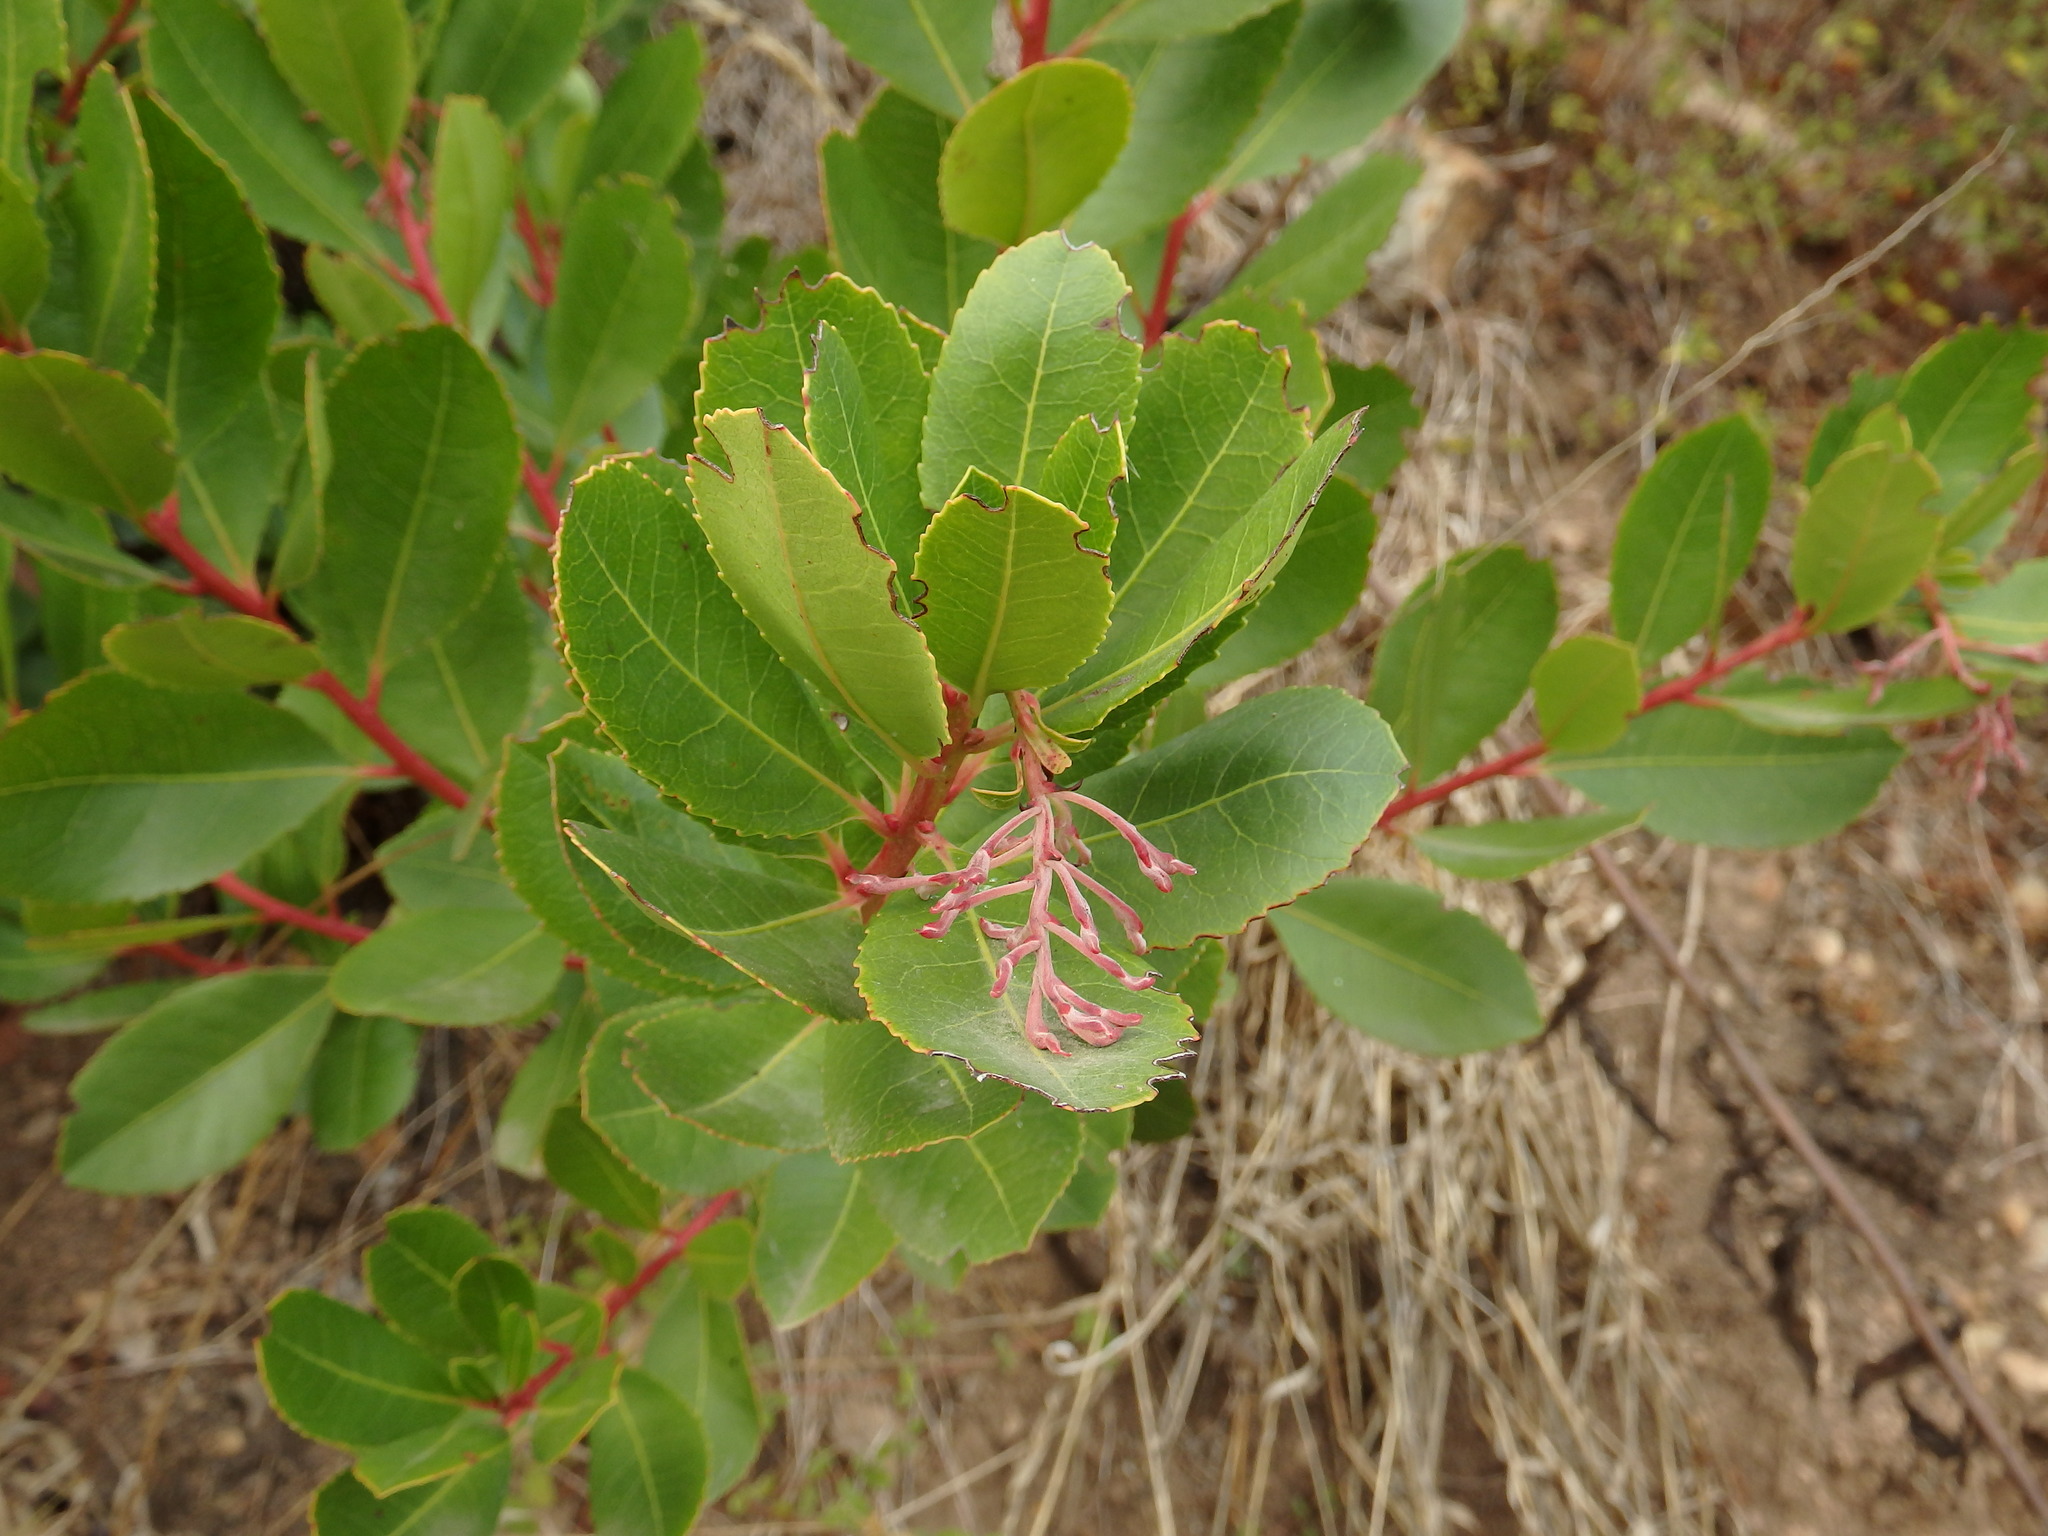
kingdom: Plantae
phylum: Tracheophyta
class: Magnoliopsida
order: Ericales
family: Ericaceae
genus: Arbutus
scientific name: Arbutus unedo
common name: Strawberry-tree
